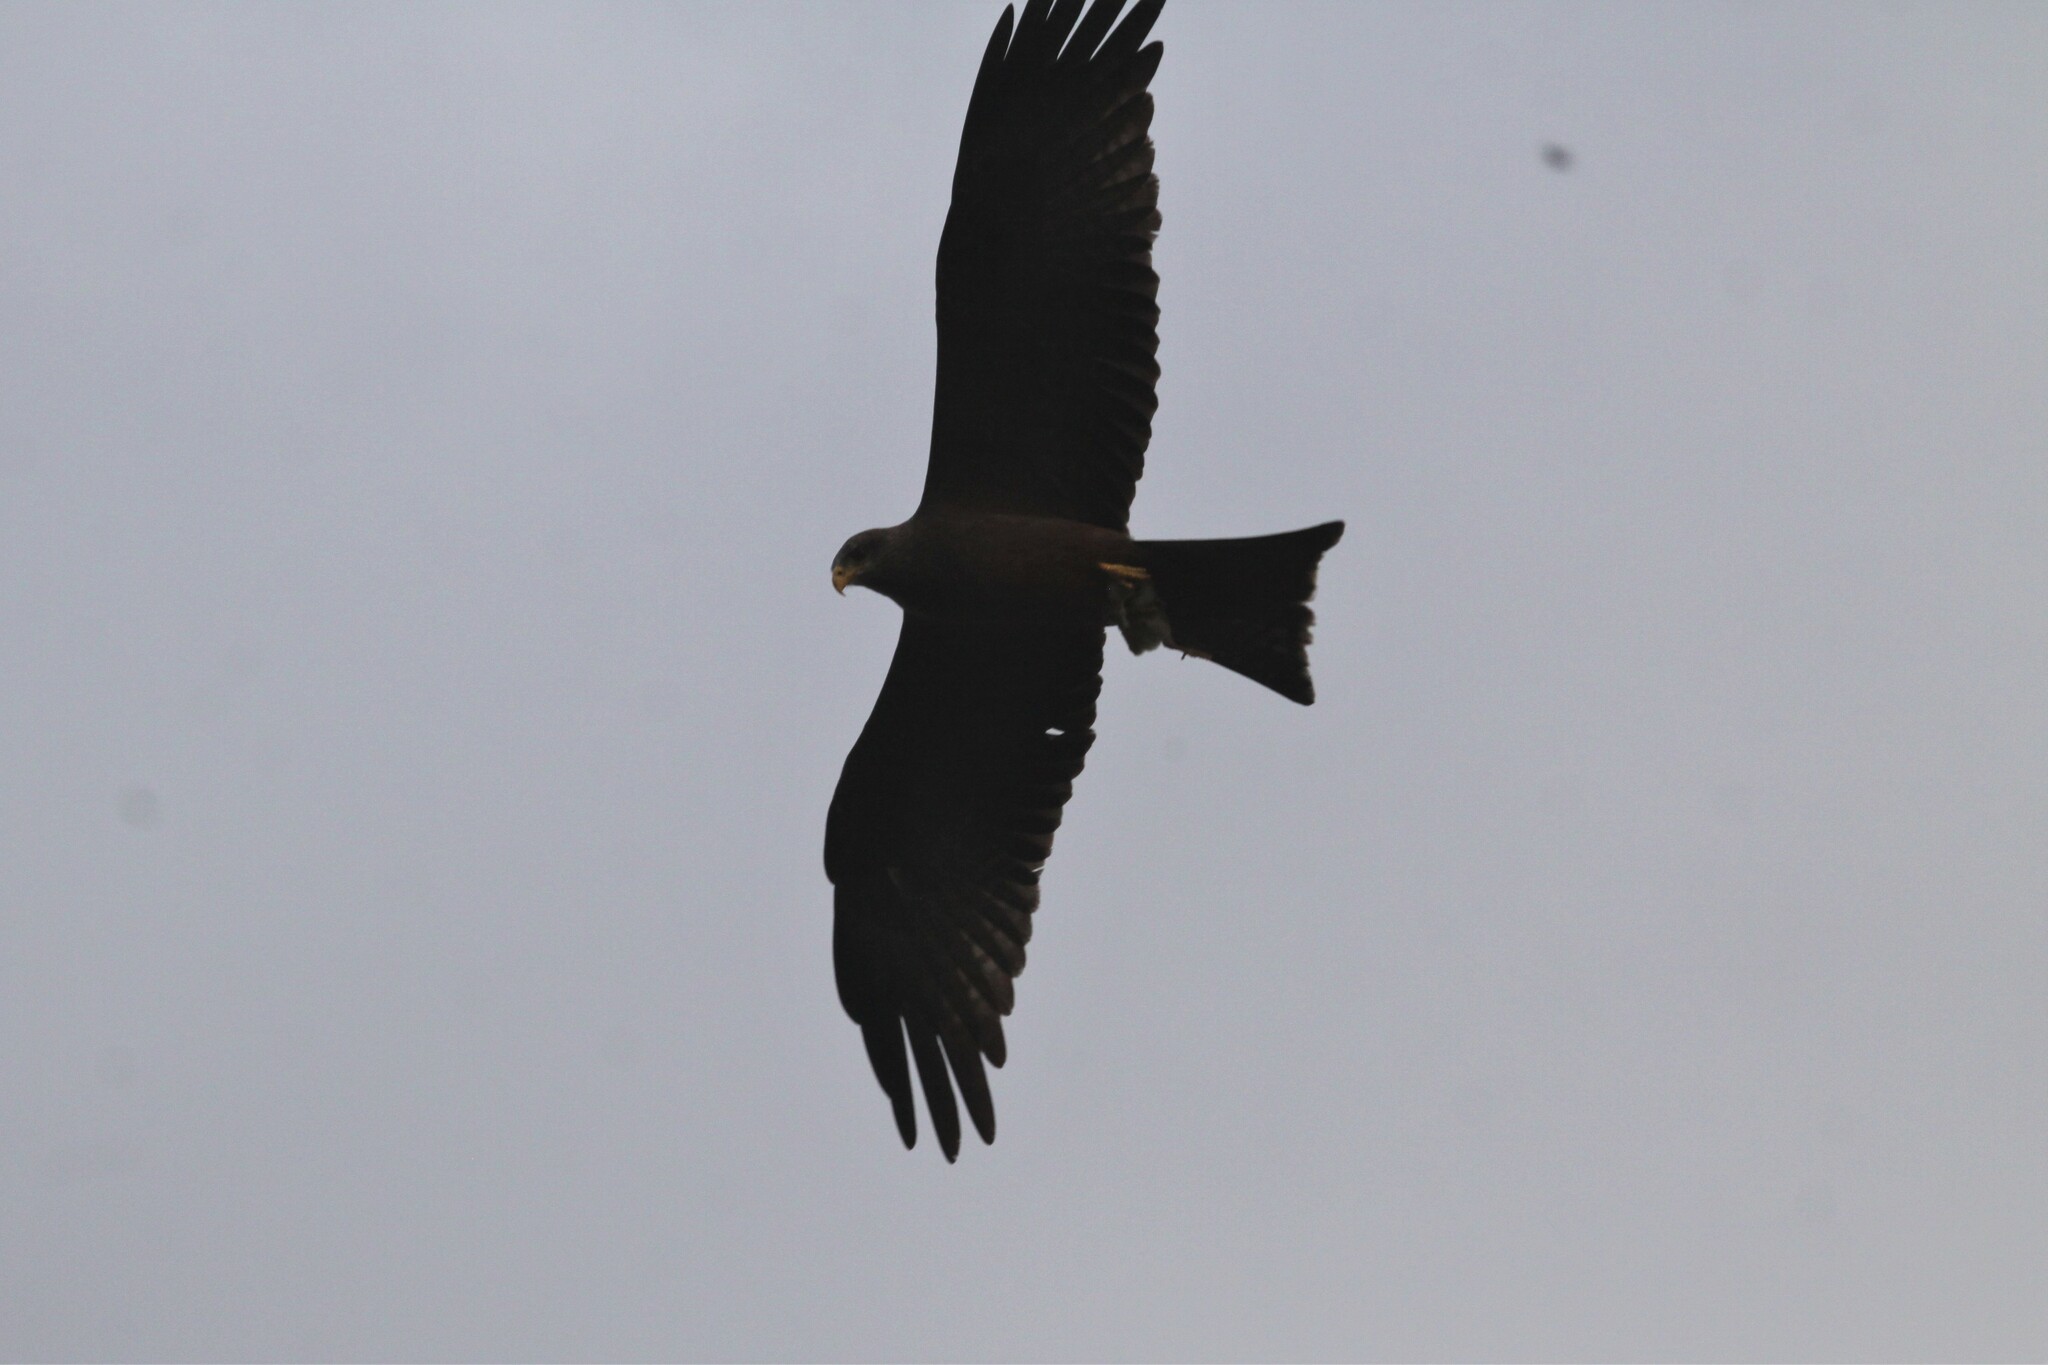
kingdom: Animalia
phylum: Chordata
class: Aves
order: Accipitriformes
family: Accipitridae
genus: Milvus
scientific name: Milvus migrans
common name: Black kite
